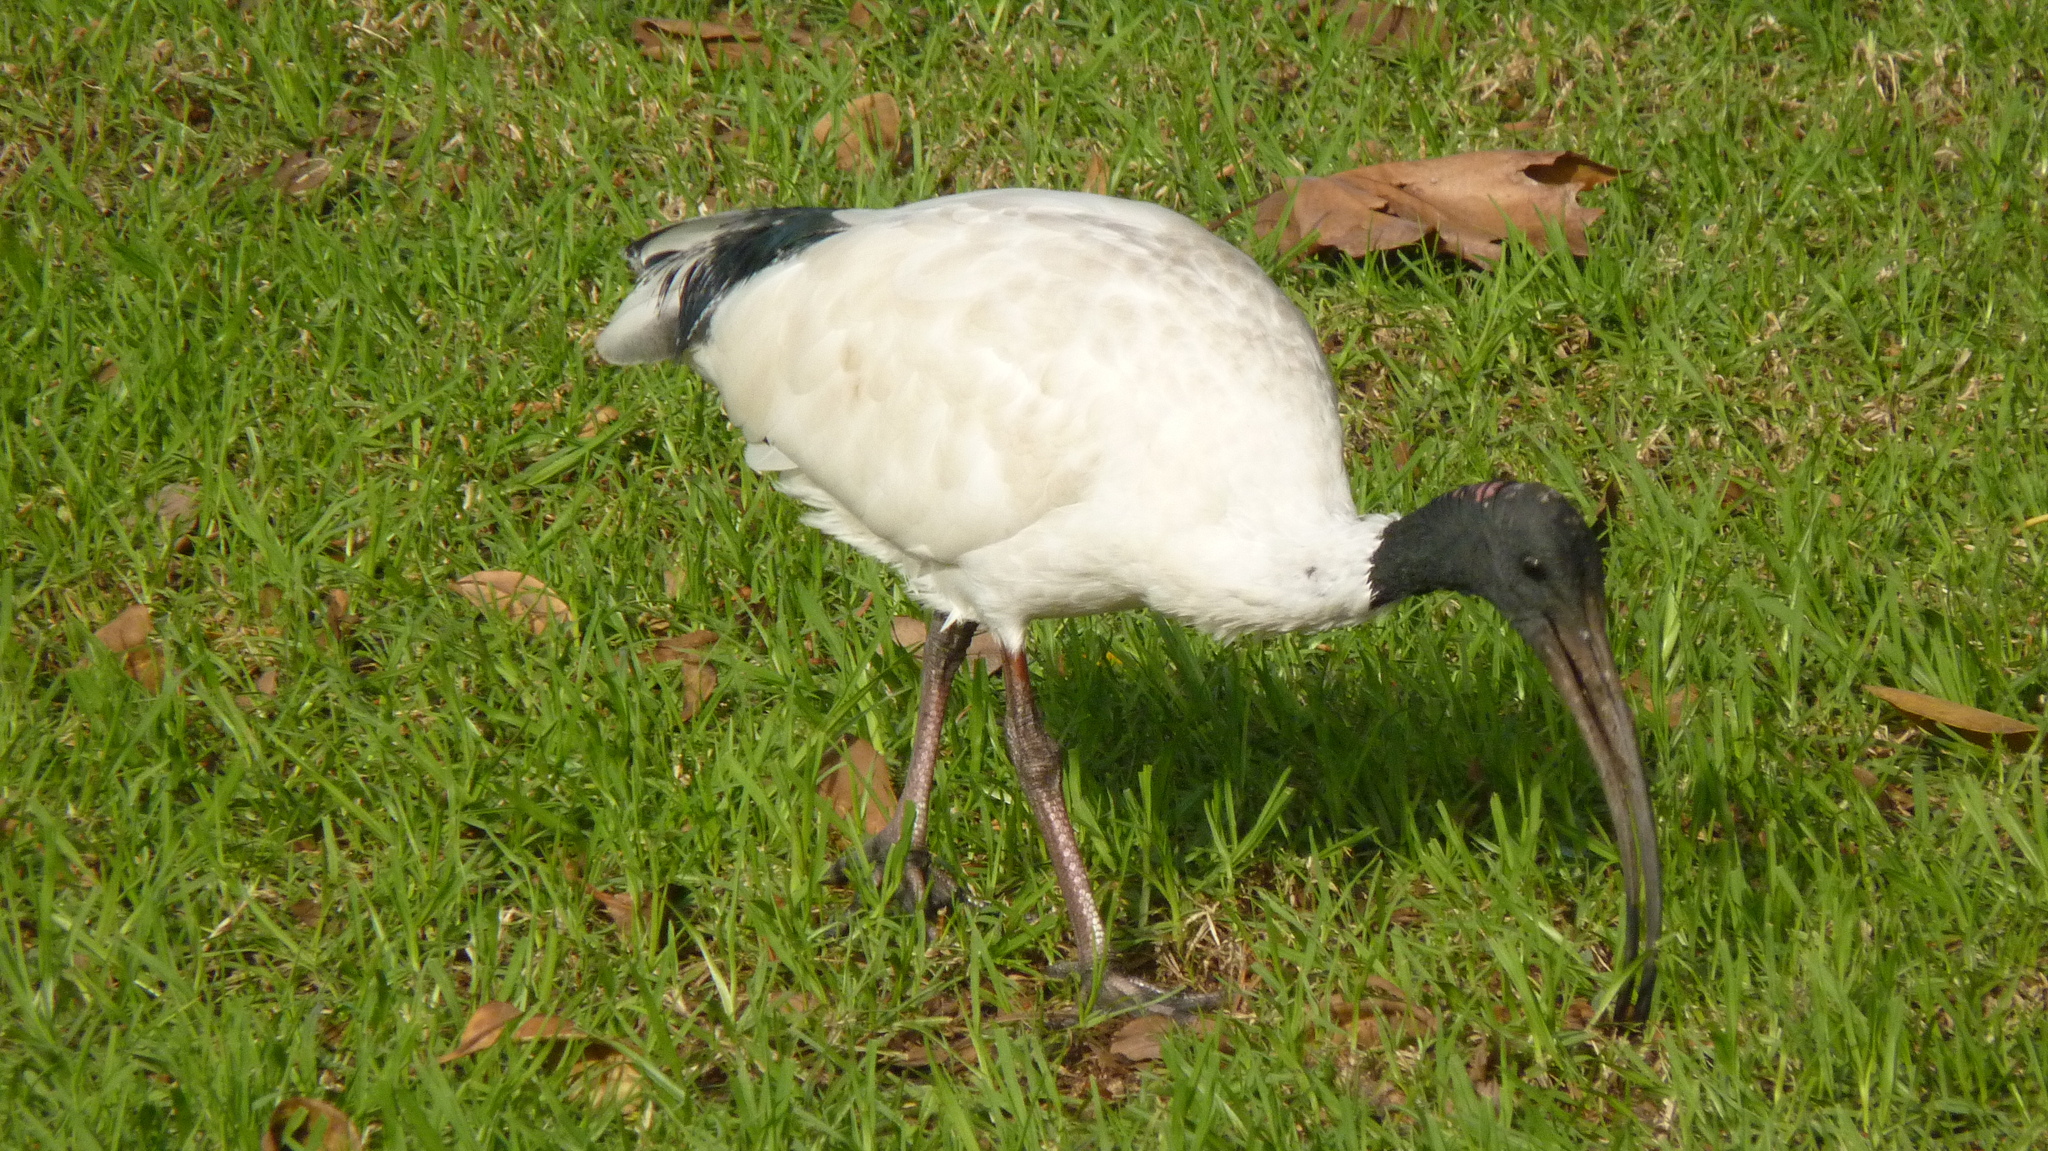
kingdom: Animalia
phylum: Chordata
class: Aves
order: Pelecaniformes
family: Threskiornithidae
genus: Threskiornis
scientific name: Threskiornis molucca
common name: Australian white ibis
